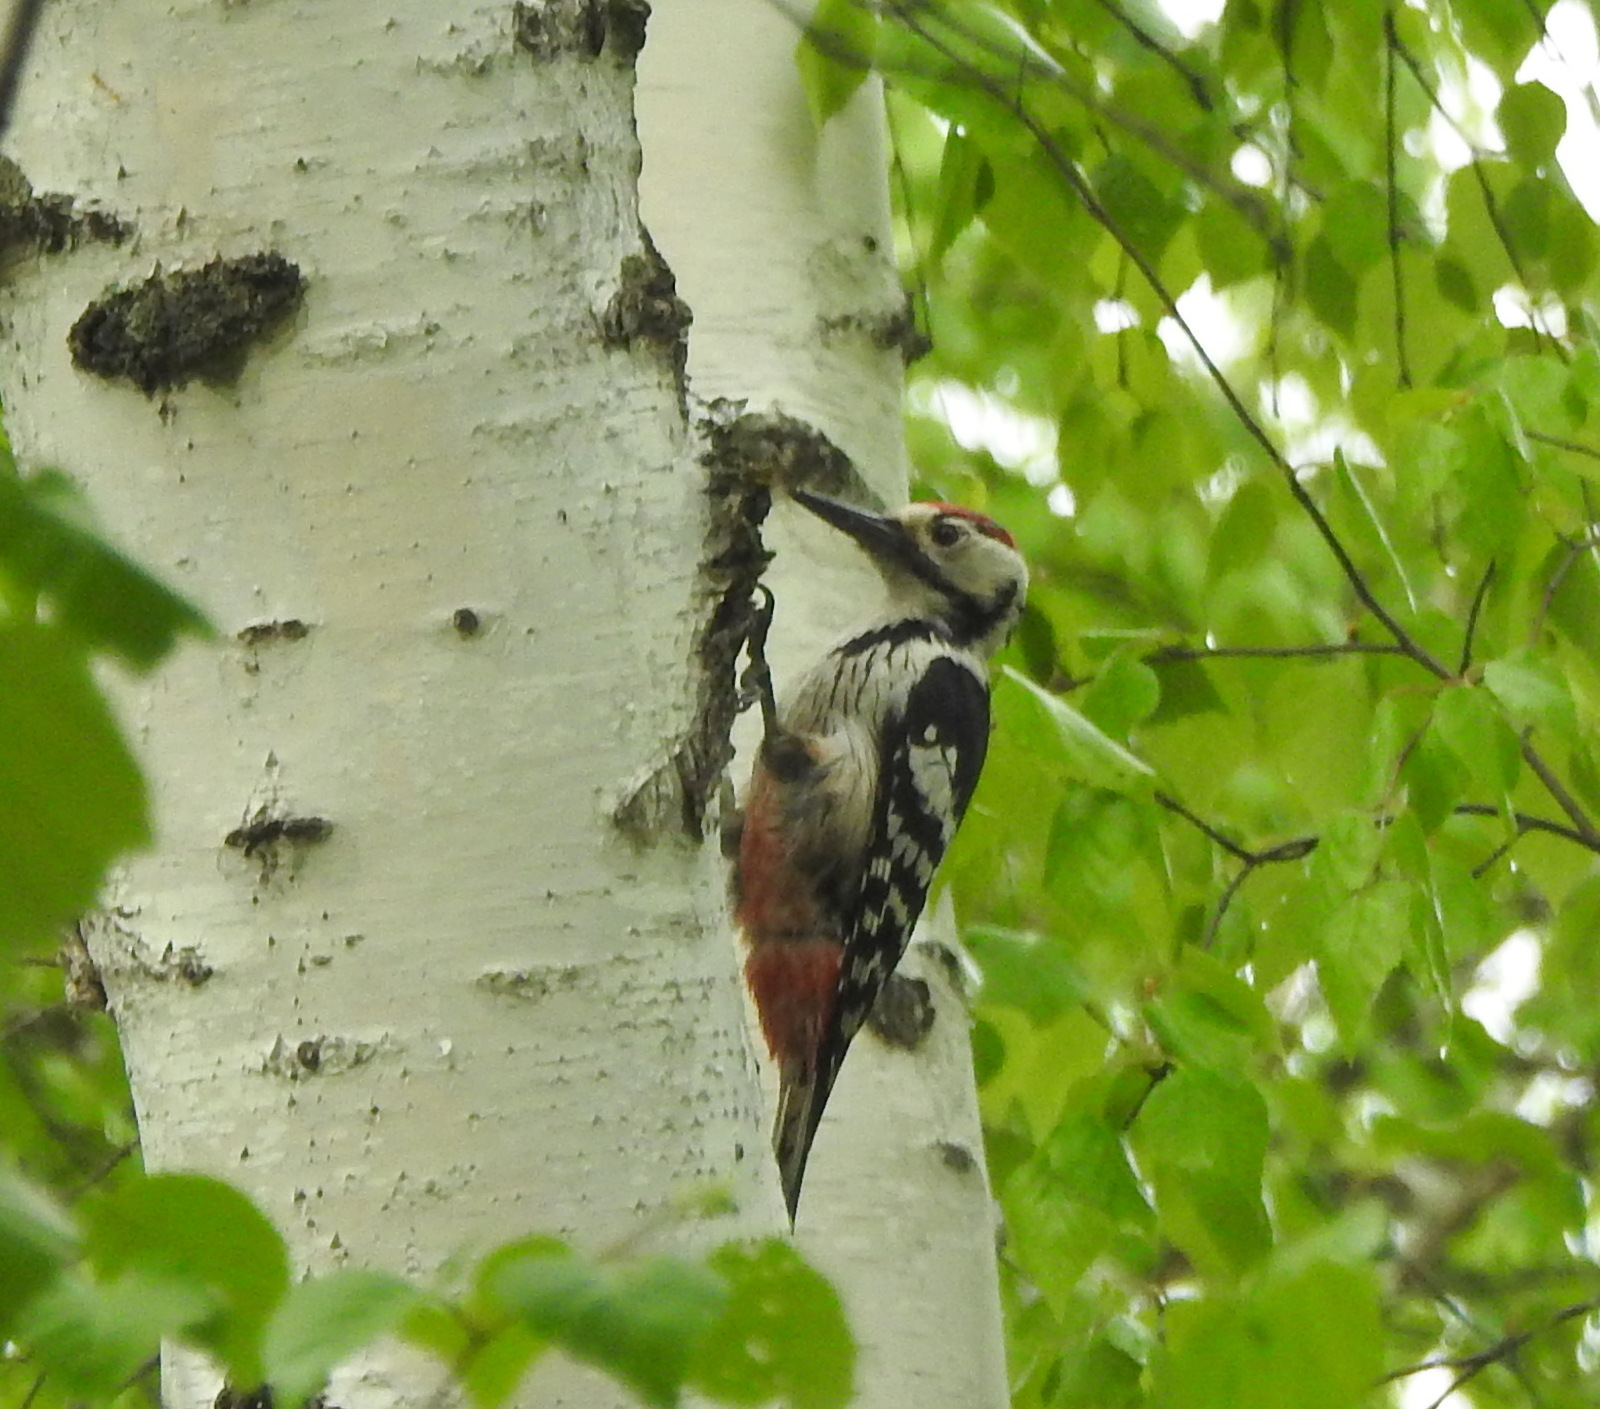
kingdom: Animalia
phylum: Chordata
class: Aves
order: Piciformes
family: Picidae
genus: Dendrocopos
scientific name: Dendrocopos leucotos
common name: White-backed woodpecker
